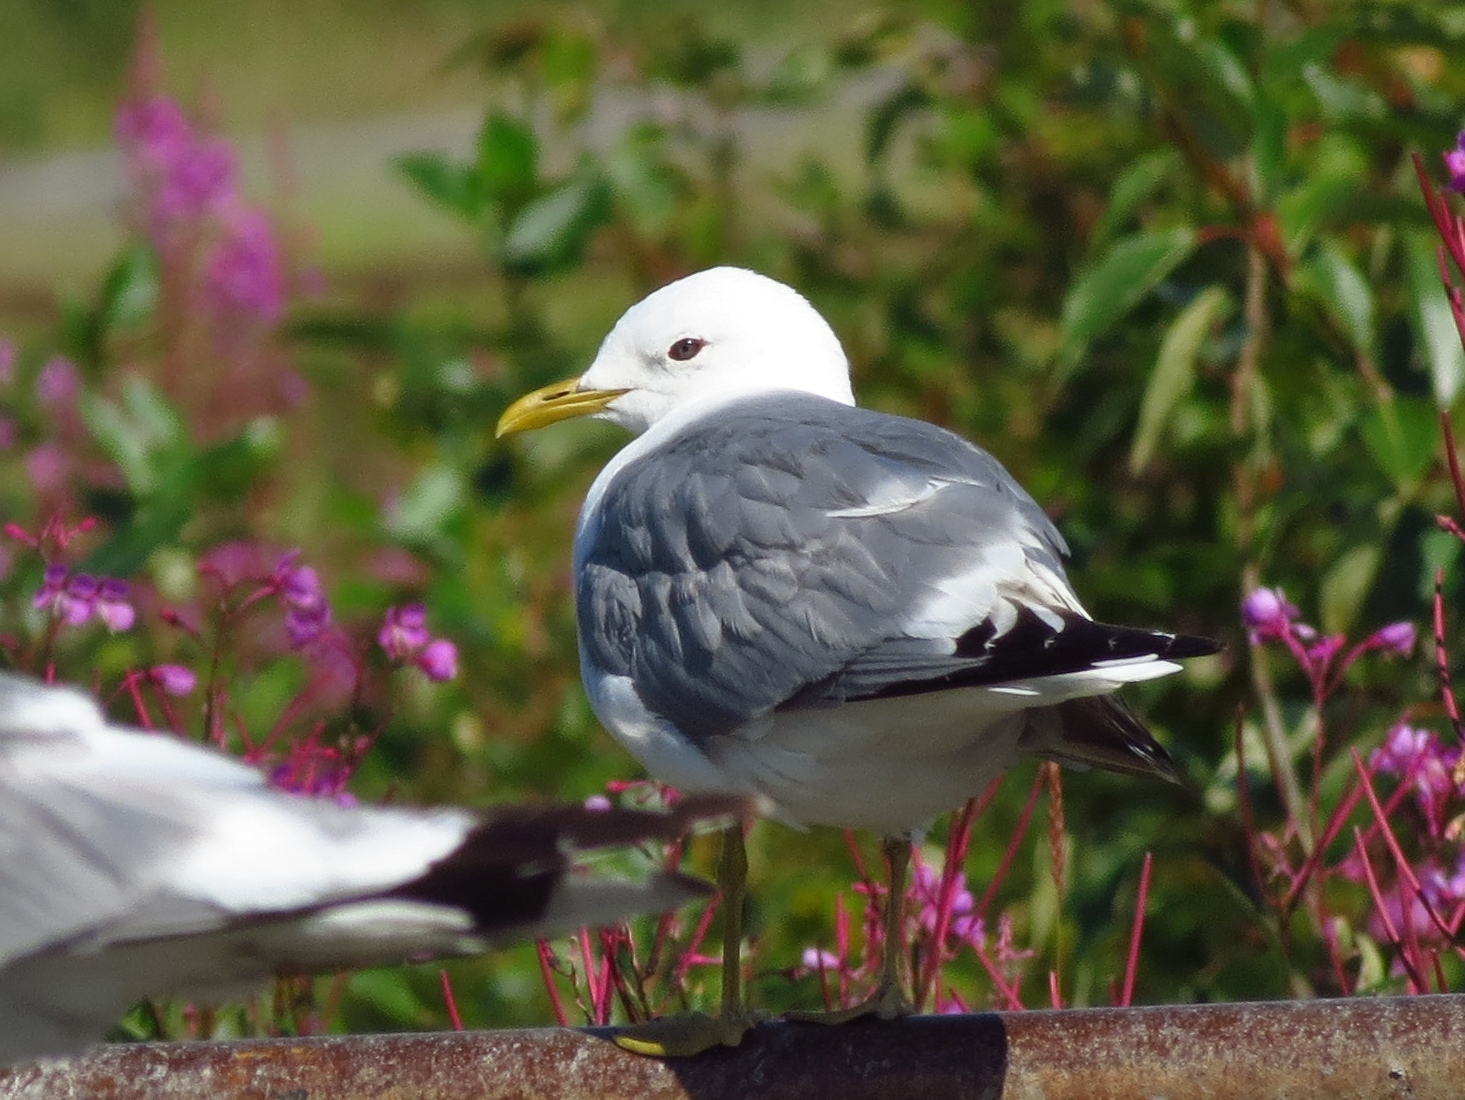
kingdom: Animalia
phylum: Chordata
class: Aves
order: Charadriiformes
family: Laridae
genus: Larus
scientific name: Larus brachyrhynchus
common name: Short-billed gull
